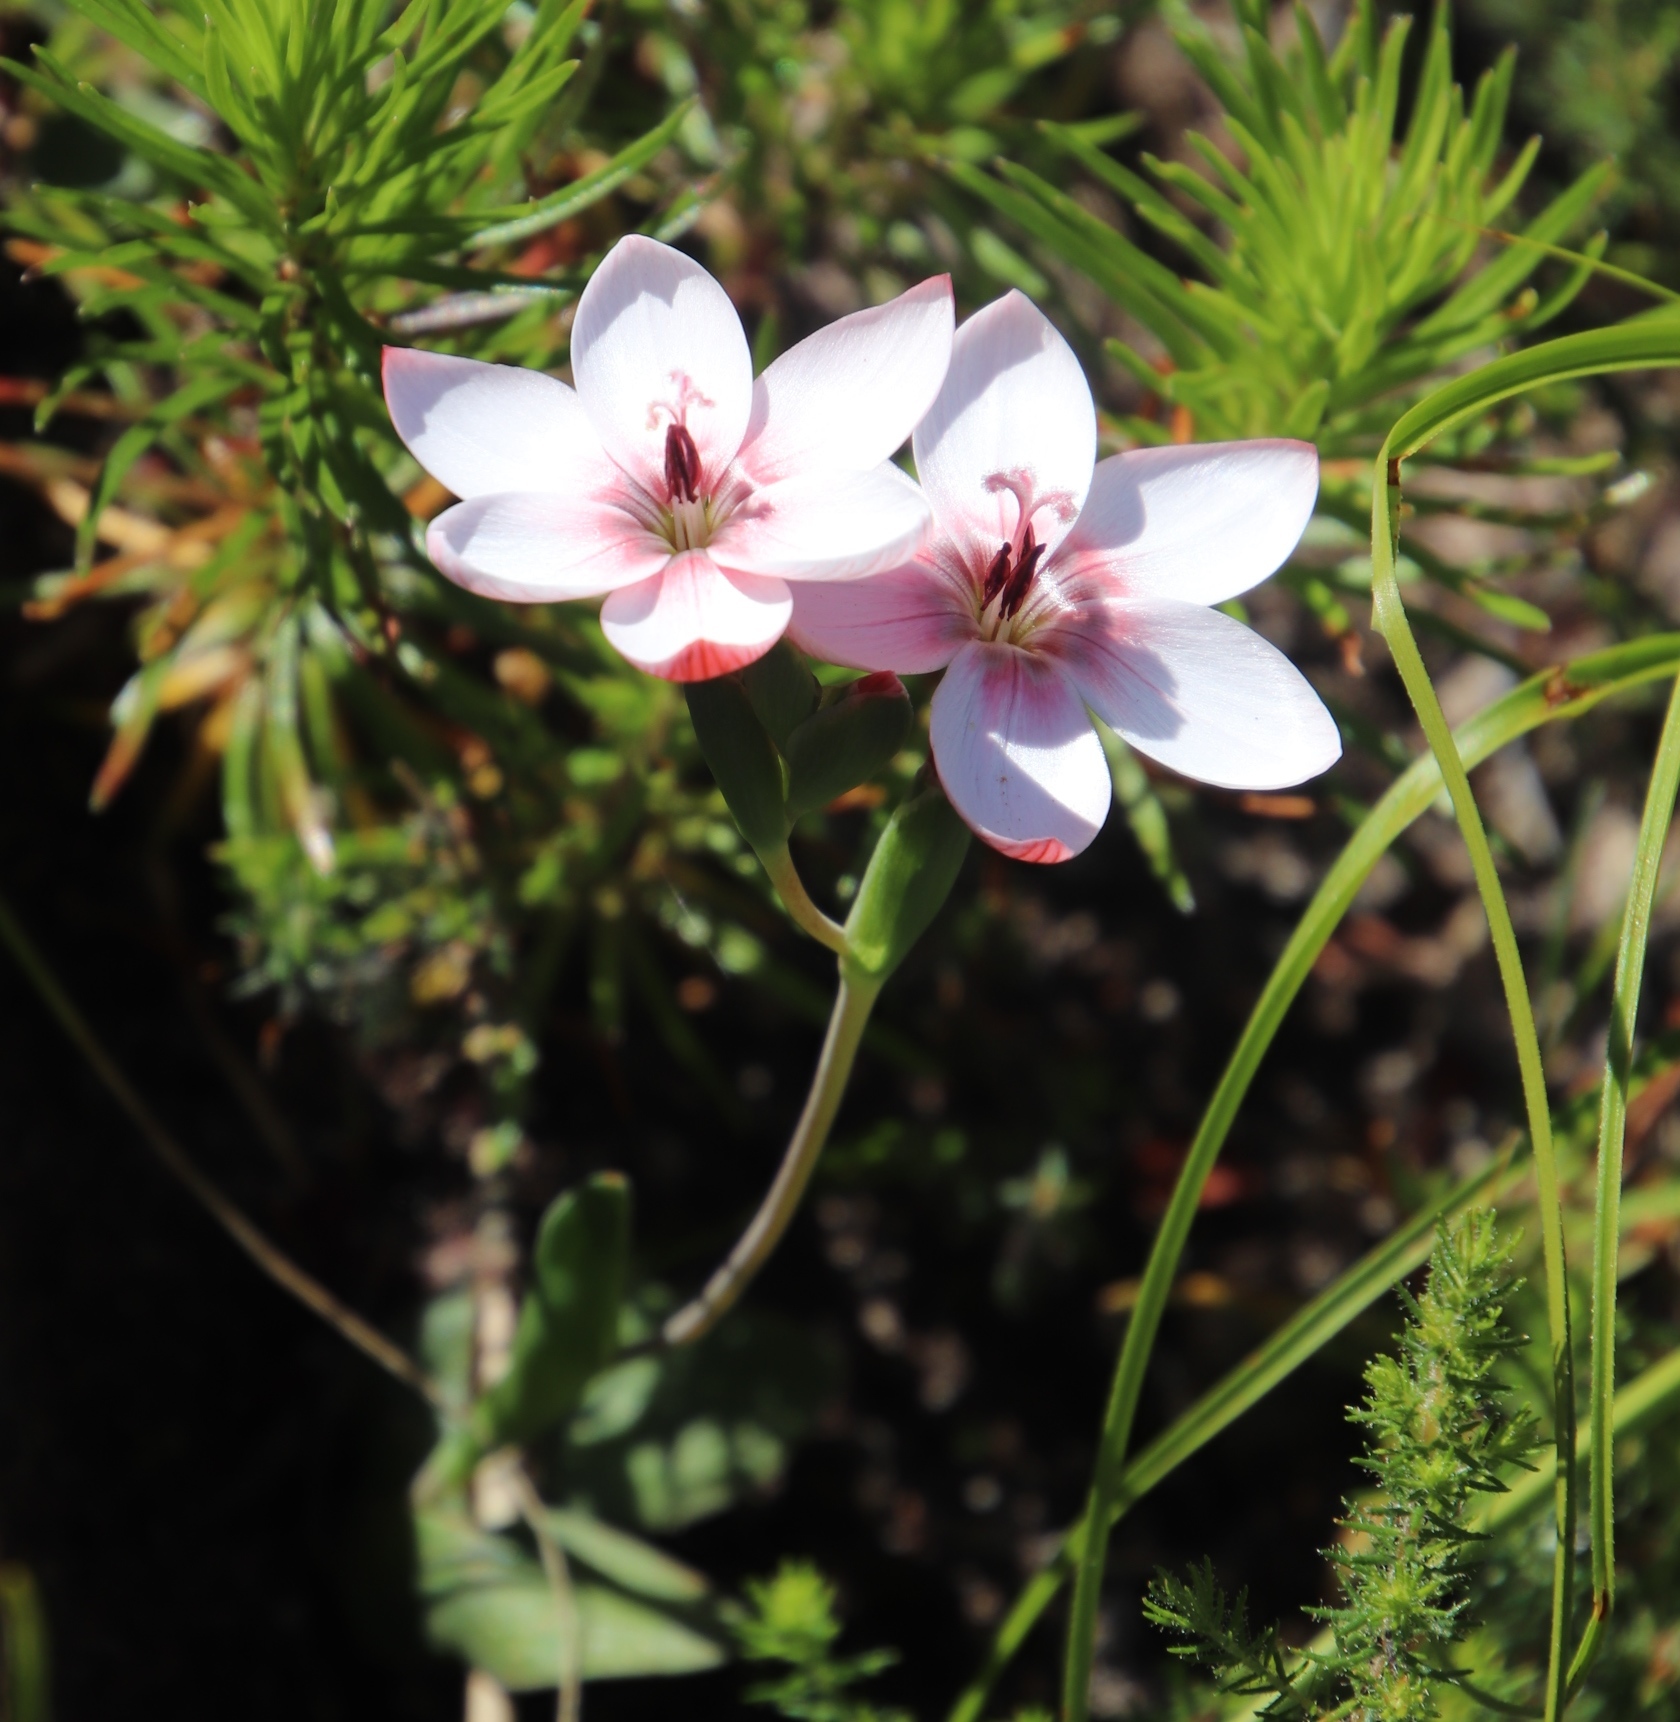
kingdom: Plantae
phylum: Tracheophyta
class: Liliopsida
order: Asparagales
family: Iridaceae
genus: Geissorhiza
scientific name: Geissorhiza ovata
